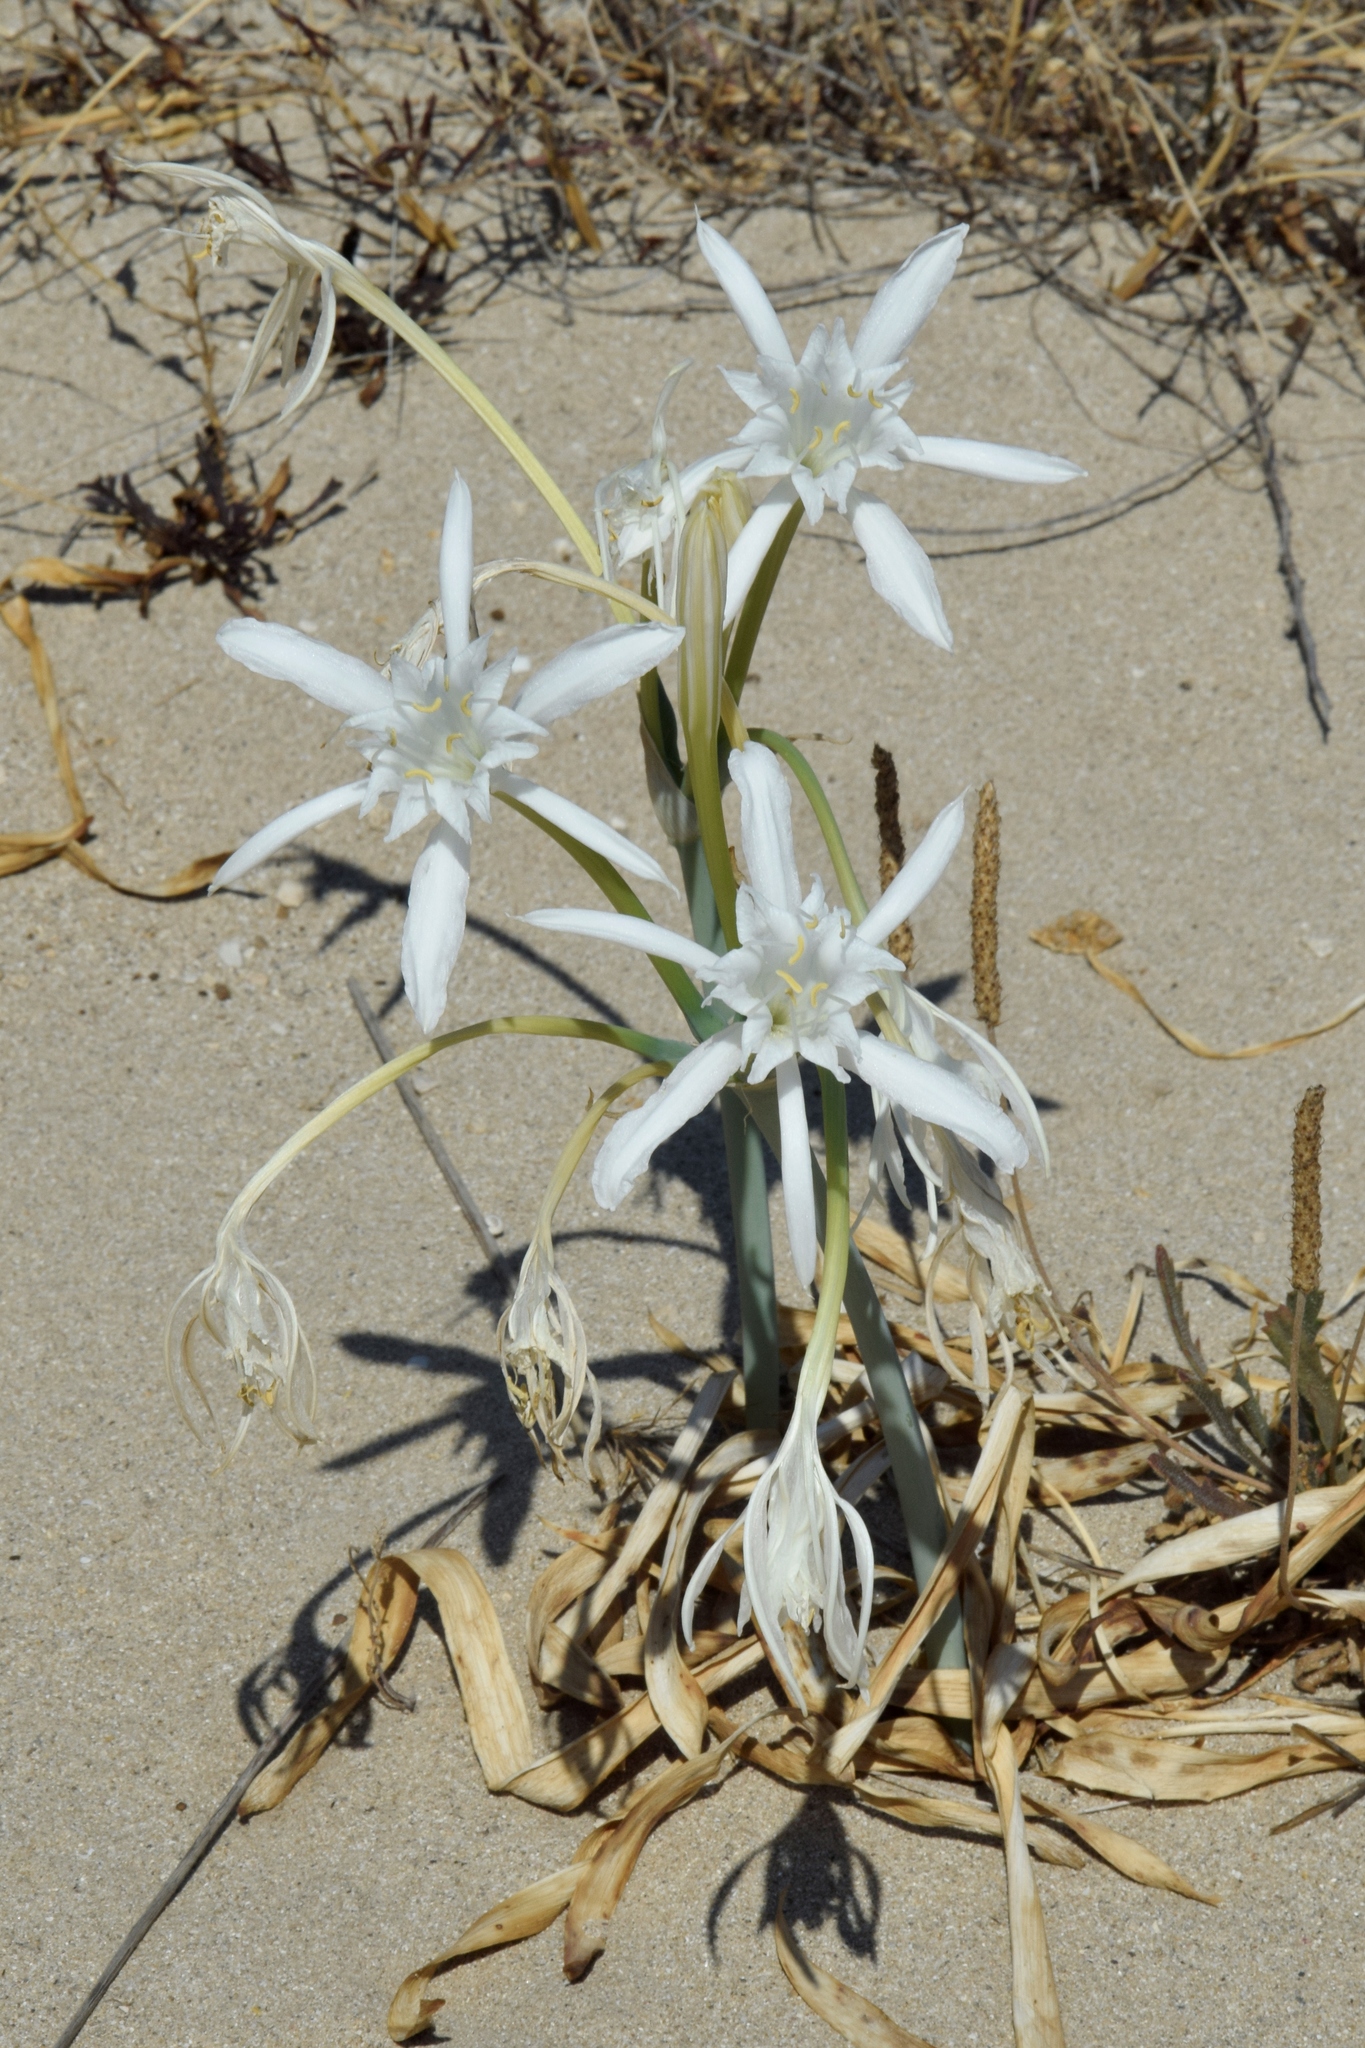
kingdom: Plantae
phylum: Tracheophyta
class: Liliopsida
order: Asparagales
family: Amaryllidaceae
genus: Pancratium
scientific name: Pancratium maritimum
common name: Sea-daffodil
